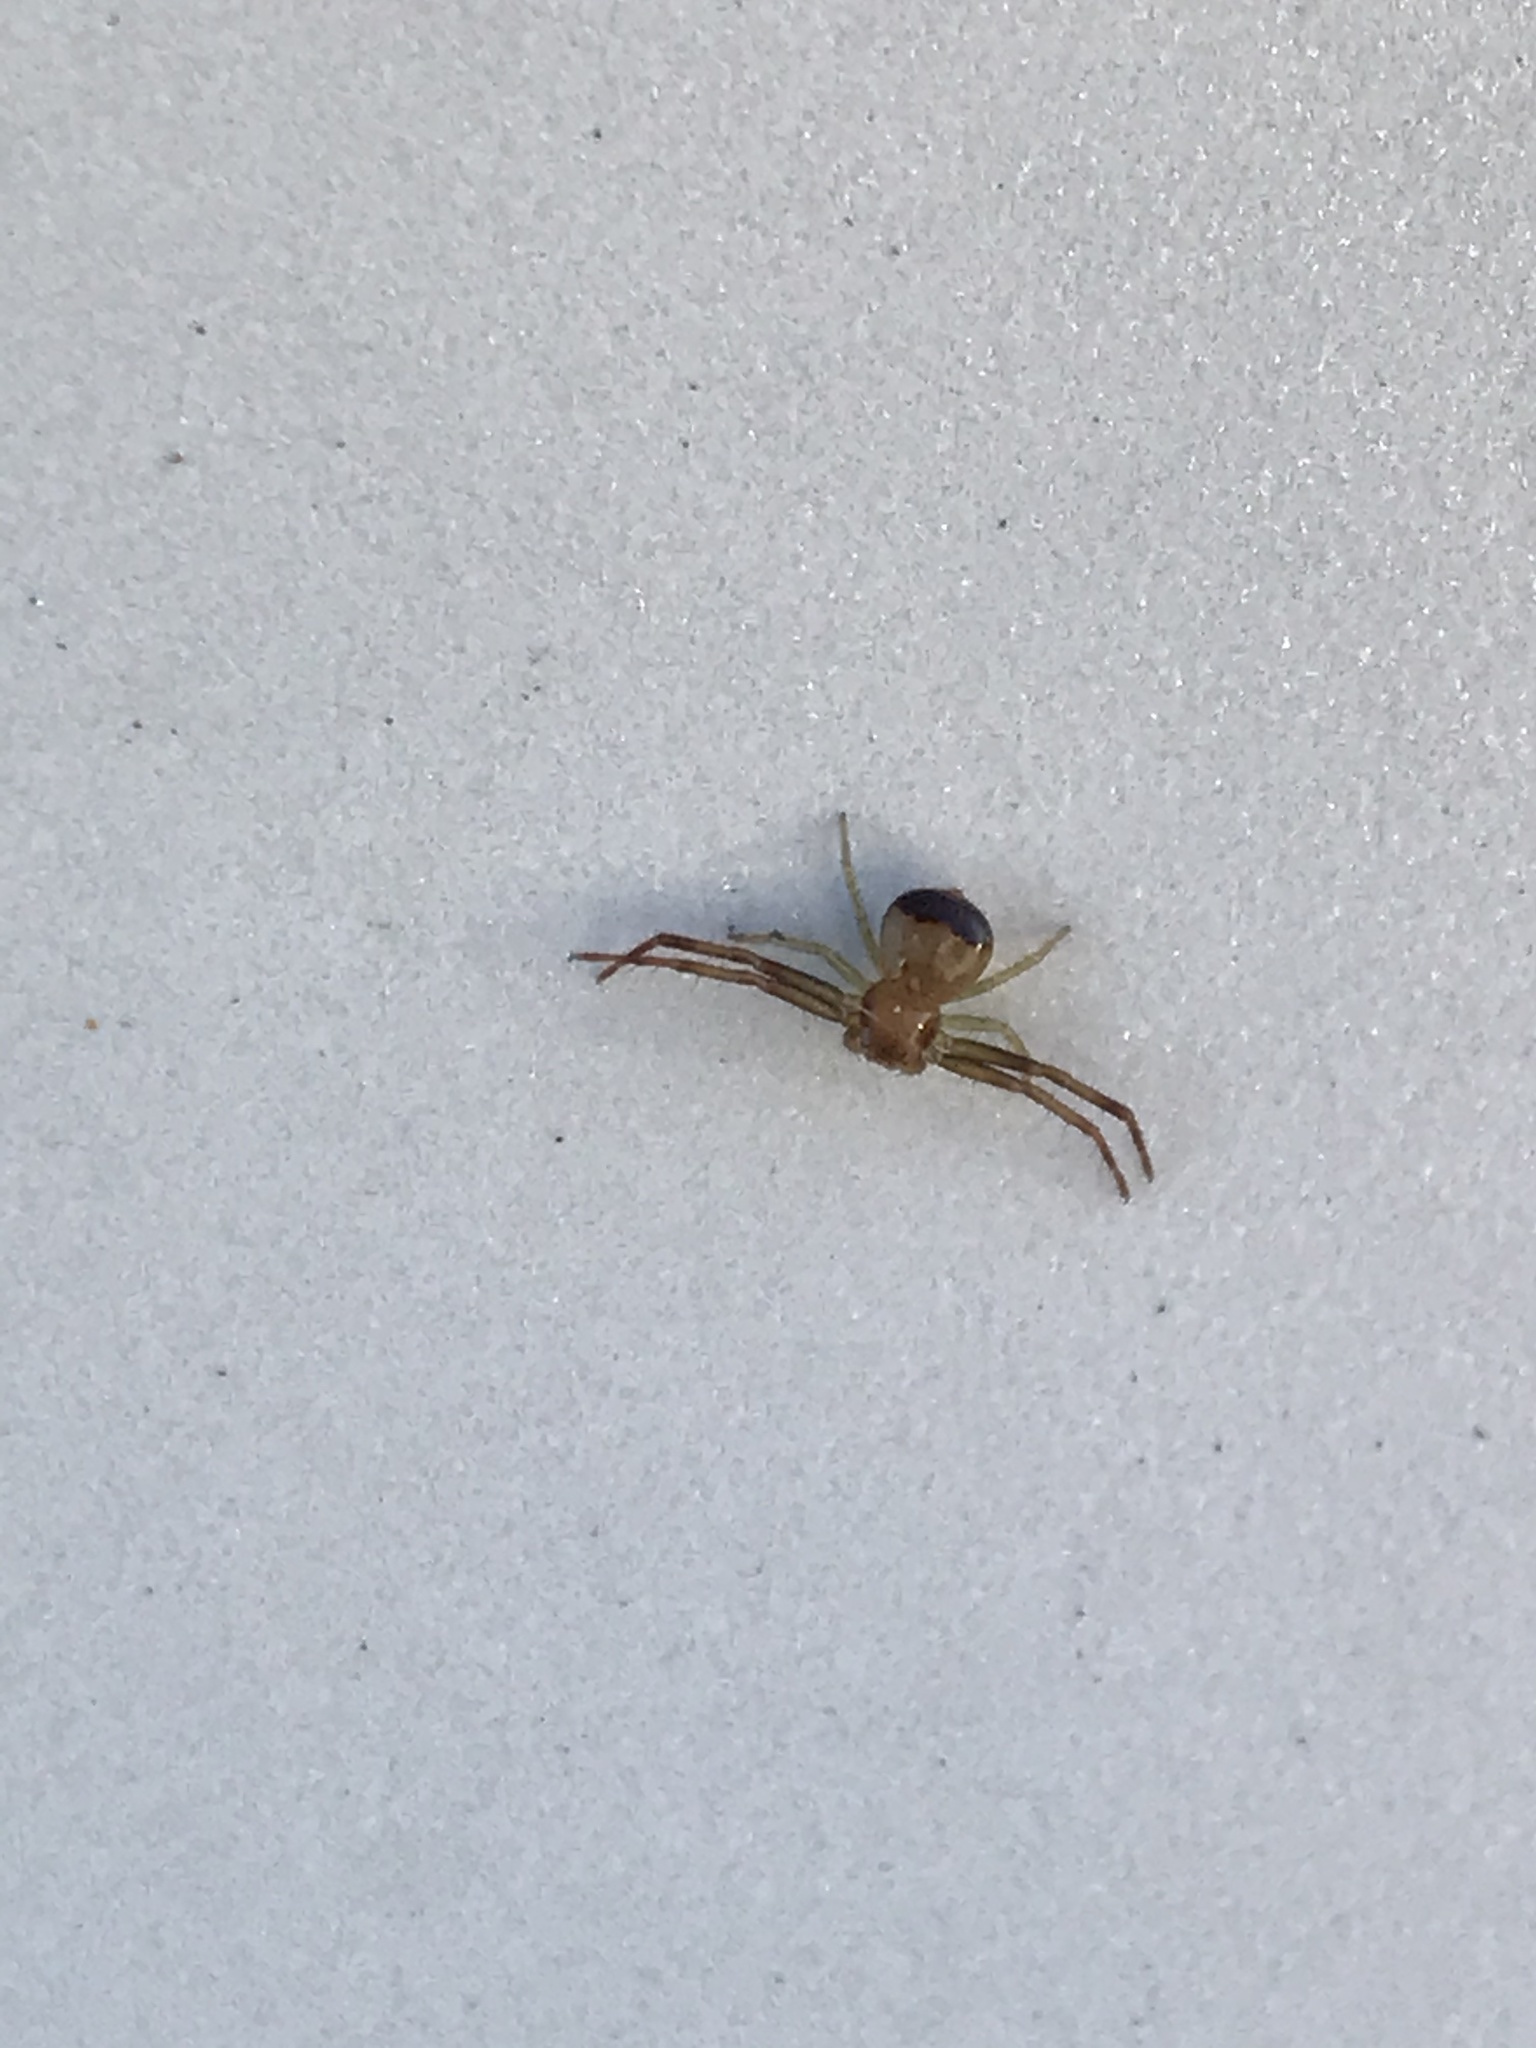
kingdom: Animalia
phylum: Arthropoda
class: Arachnida
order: Araneae
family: Thomisidae
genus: Synema
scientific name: Synema parvulum
